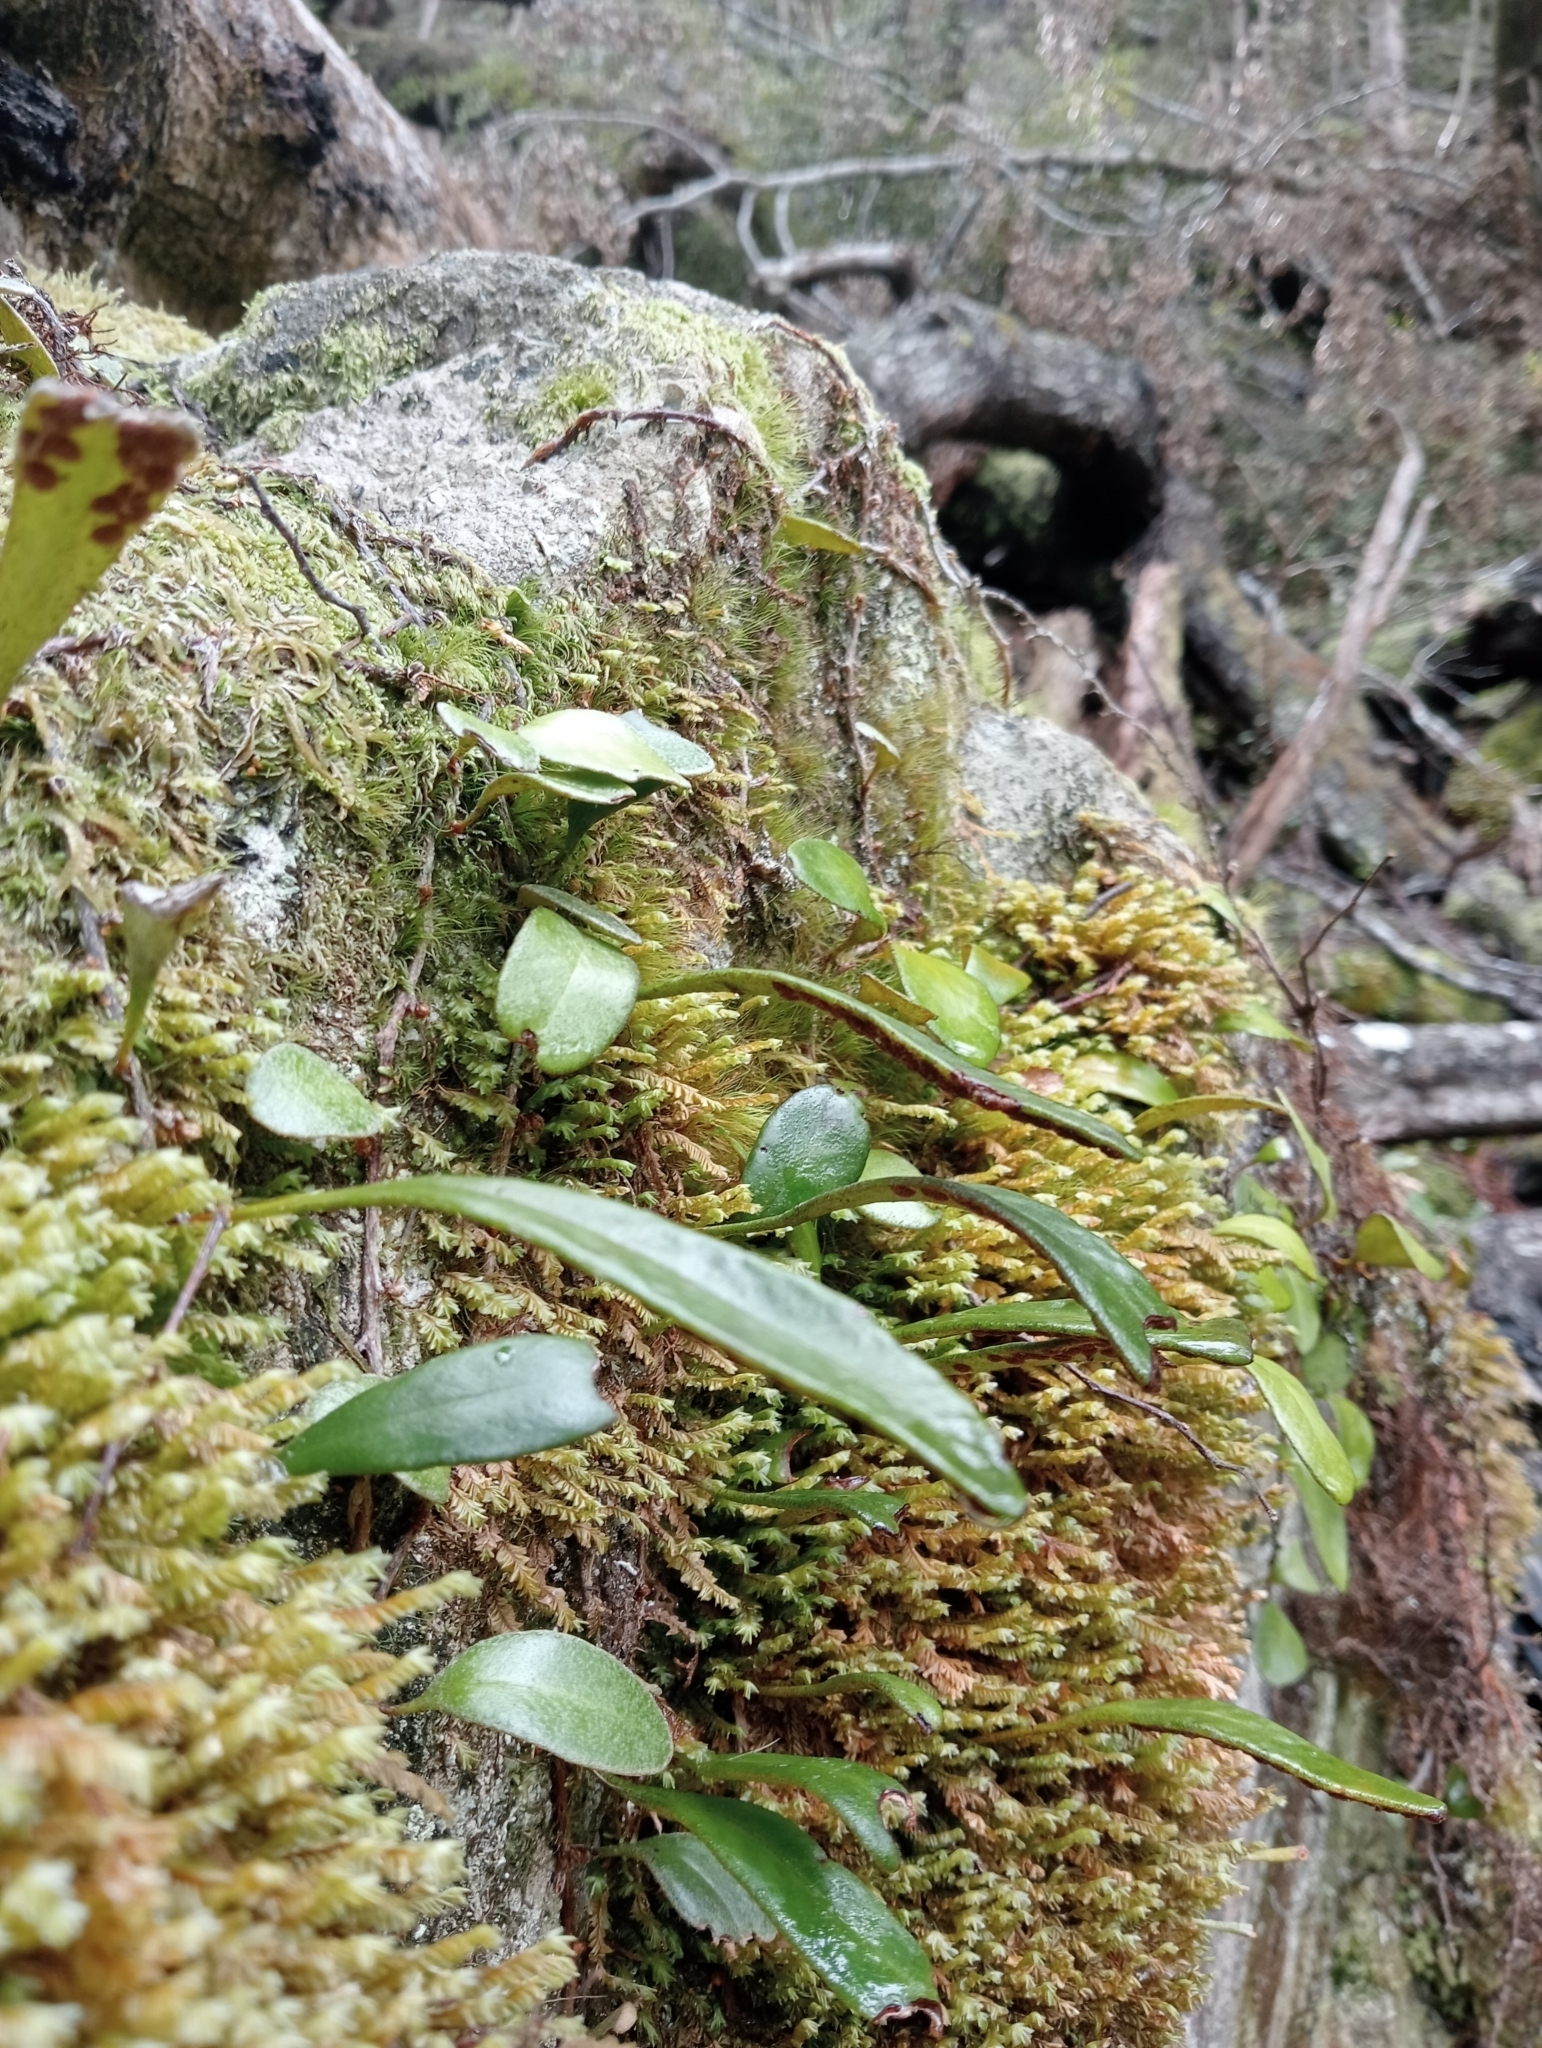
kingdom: Plantae
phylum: Tracheophyta
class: Polypodiopsida
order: Polypodiales
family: Polypodiaceae
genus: Pyrrosia
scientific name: Pyrrosia eleagnifolia
